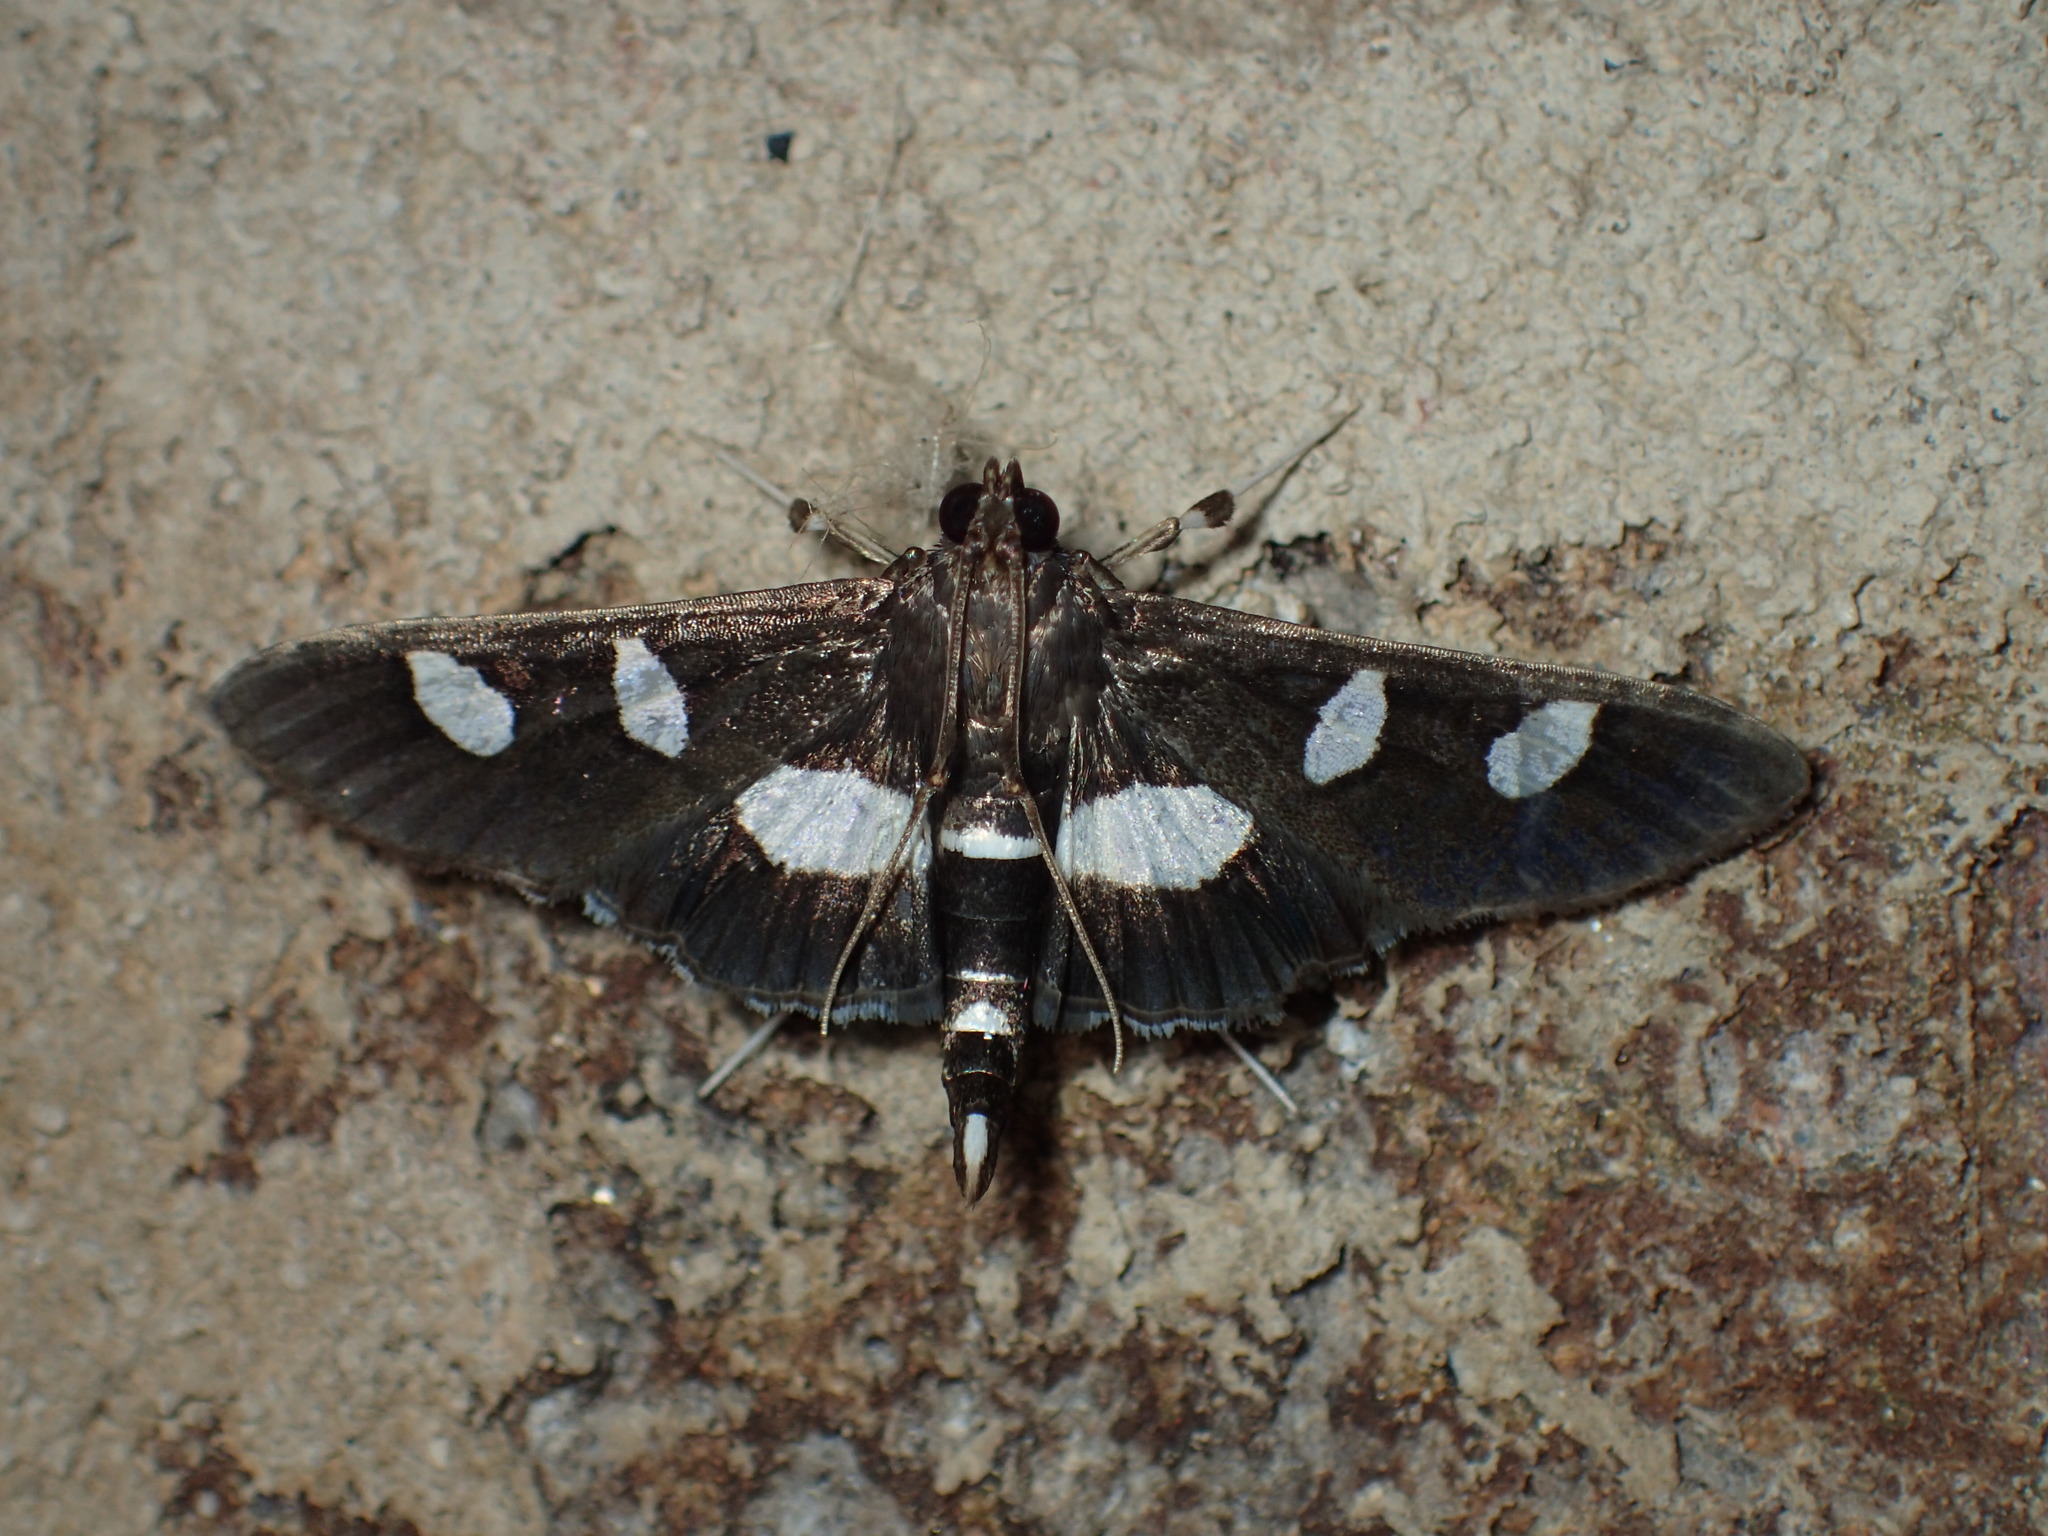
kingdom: Animalia
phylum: Arthropoda
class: Insecta
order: Lepidoptera
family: Crambidae
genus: Desmia
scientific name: Desmia
